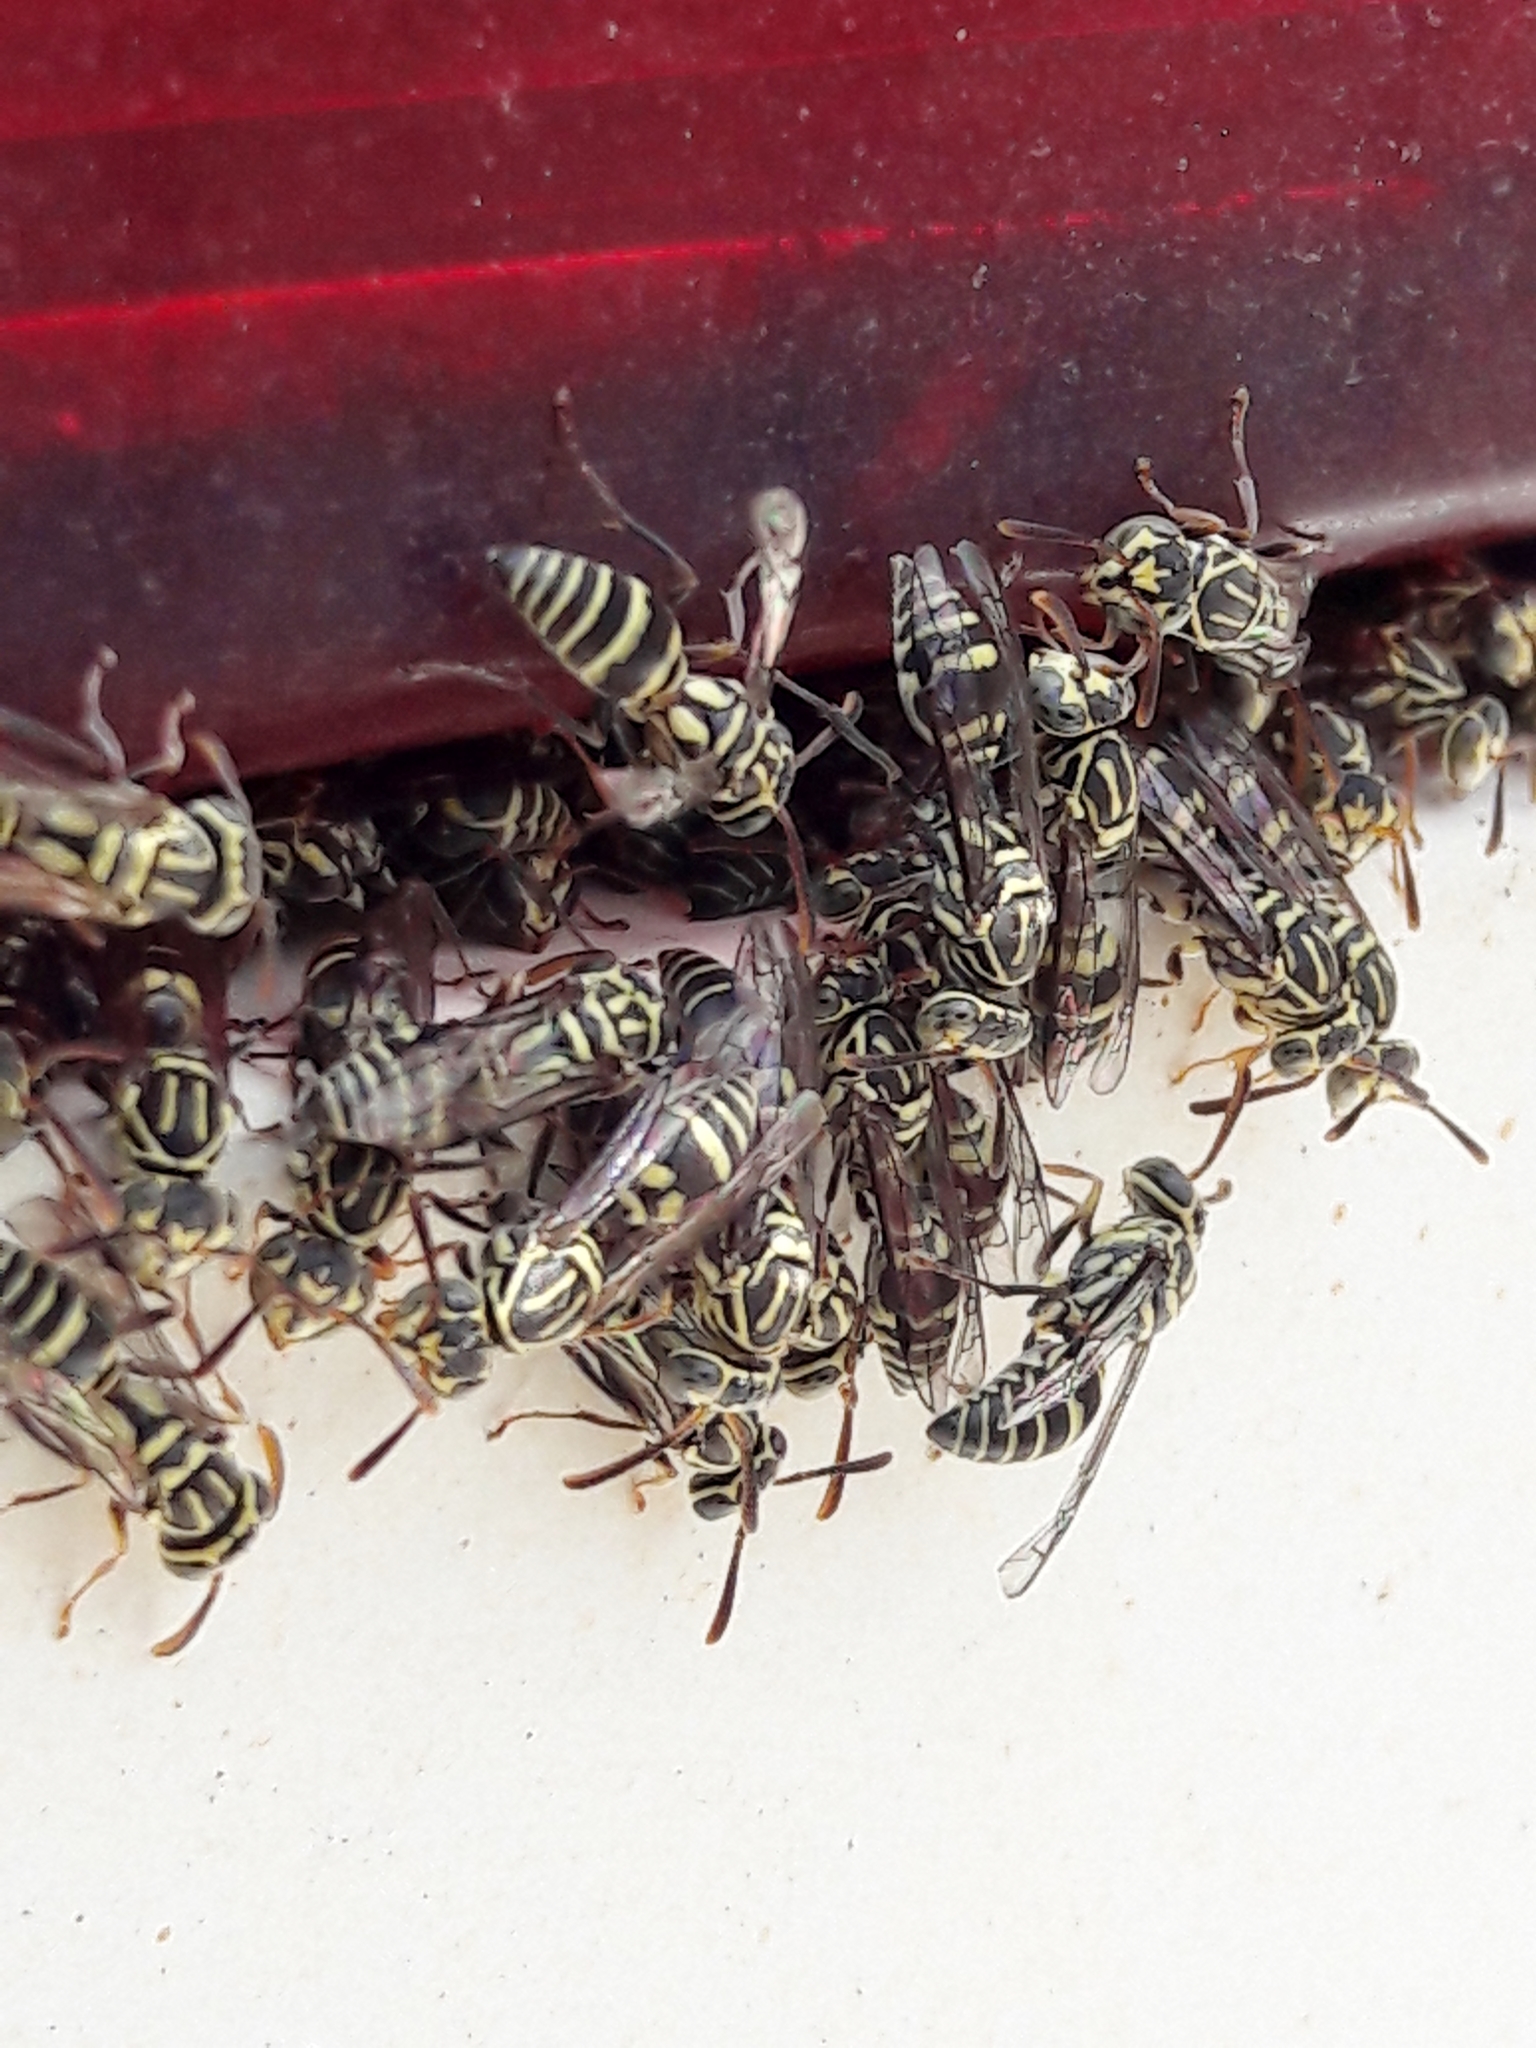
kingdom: Animalia
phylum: Arthropoda
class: Insecta
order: Hymenoptera
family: Vespidae
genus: Protopolybia
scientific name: Protopolybia exigua
